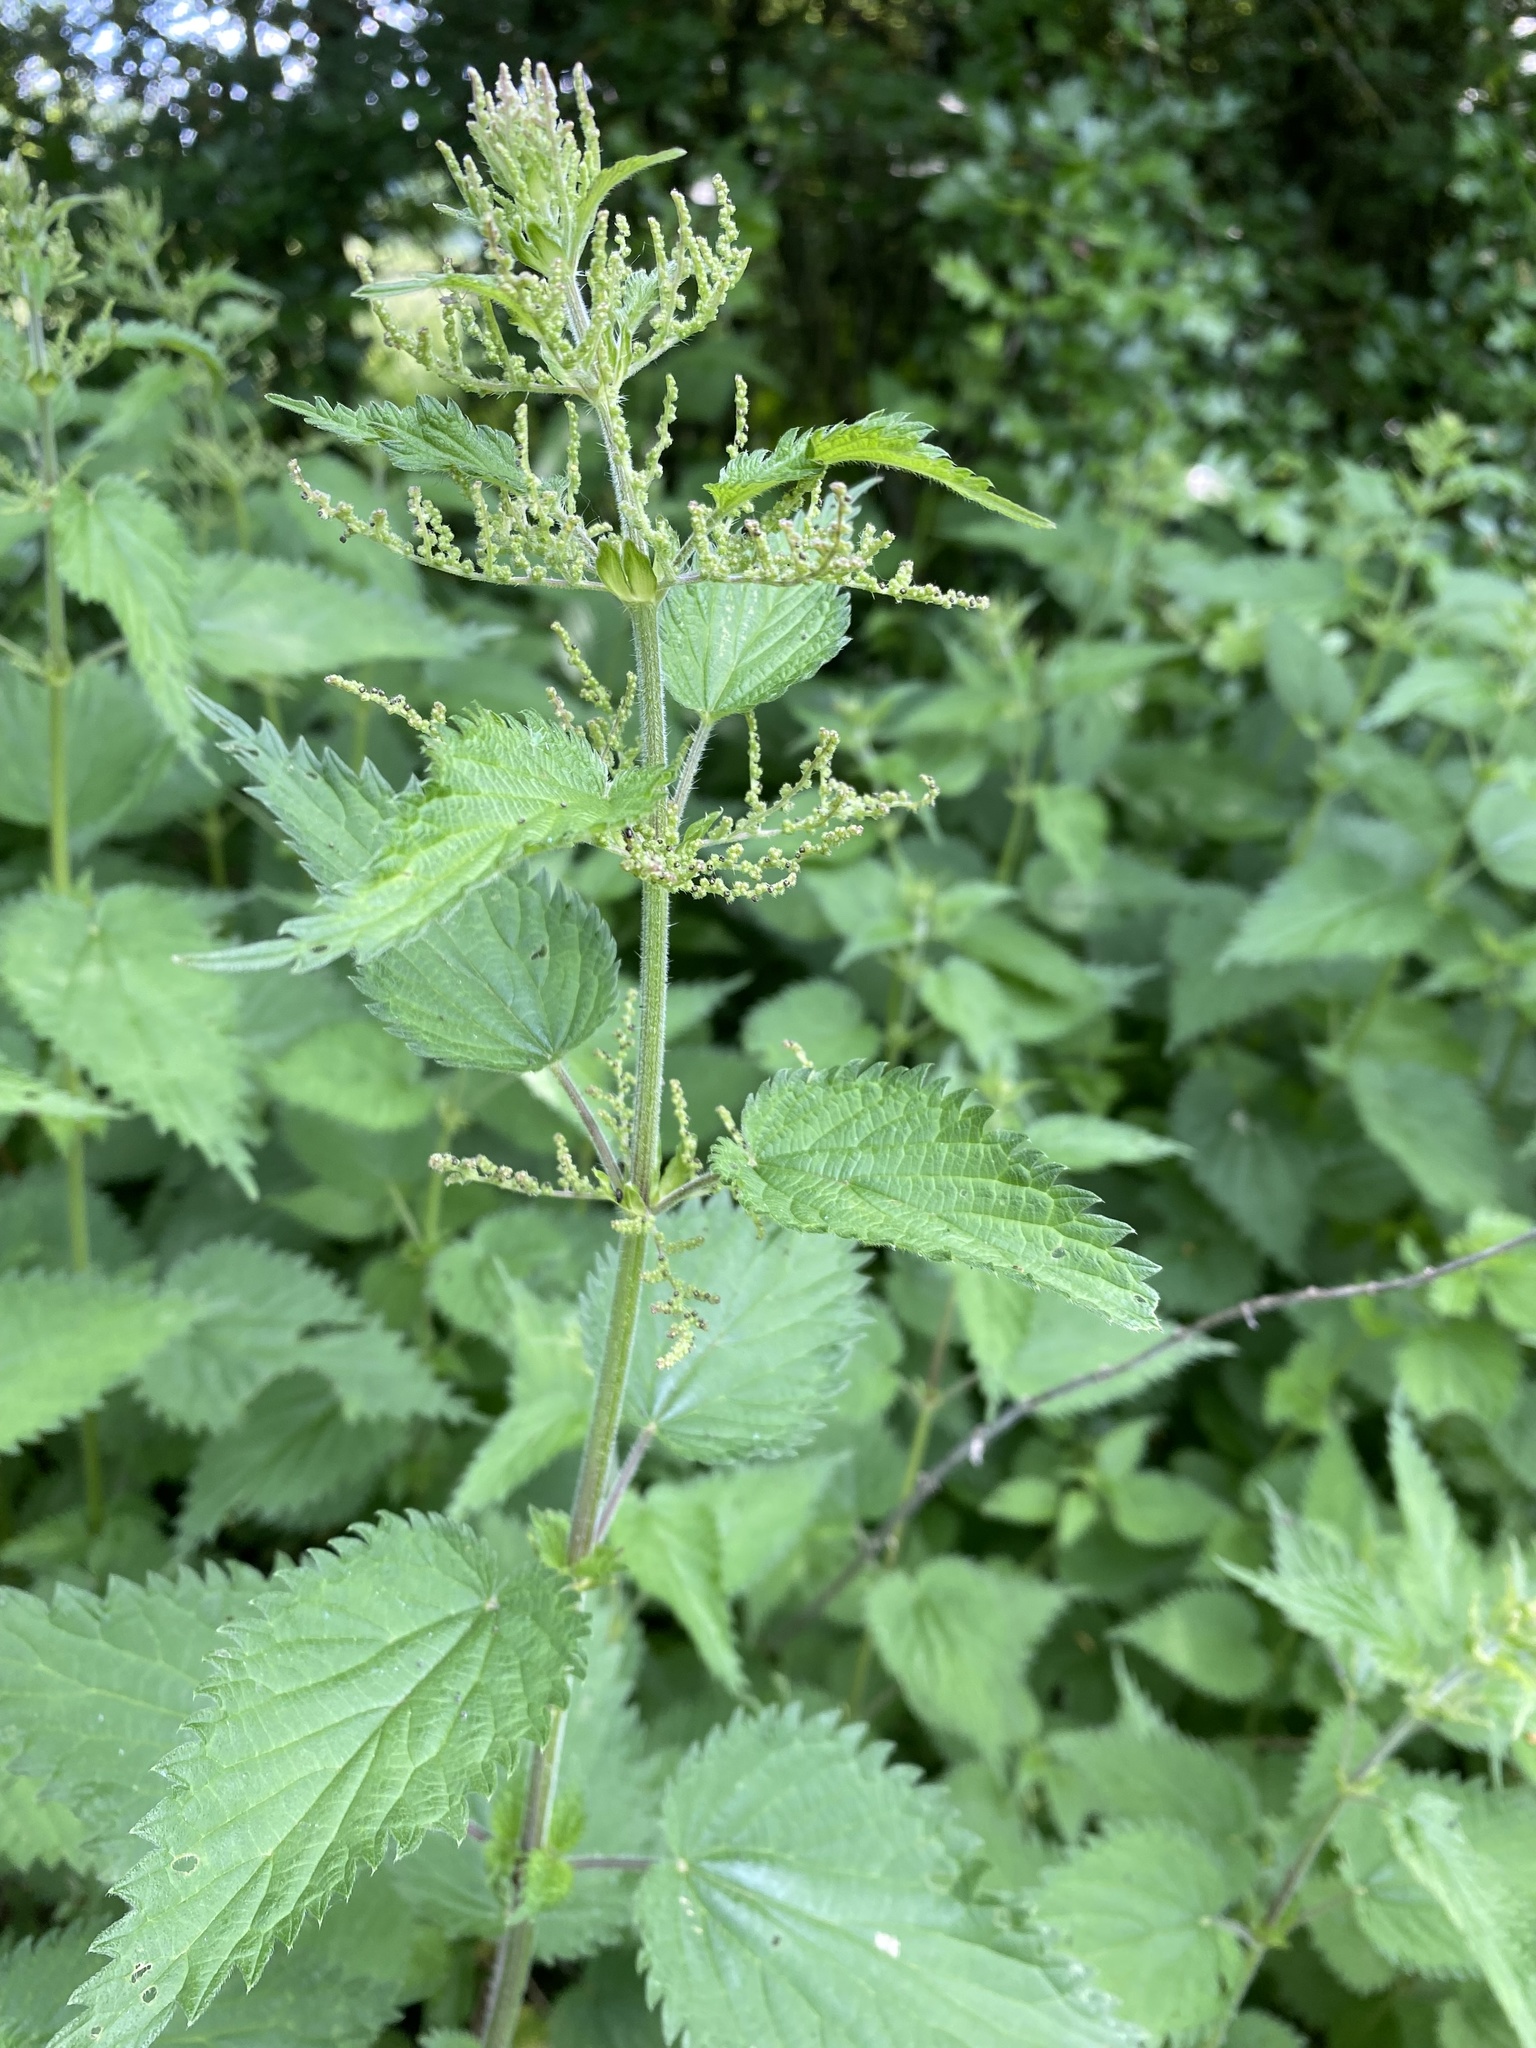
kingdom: Plantae
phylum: Tracheophyta
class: Magnoliopsida
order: Rosales
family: Urticaceae
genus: Urtica
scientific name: Urtica dioica
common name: Common nettle
